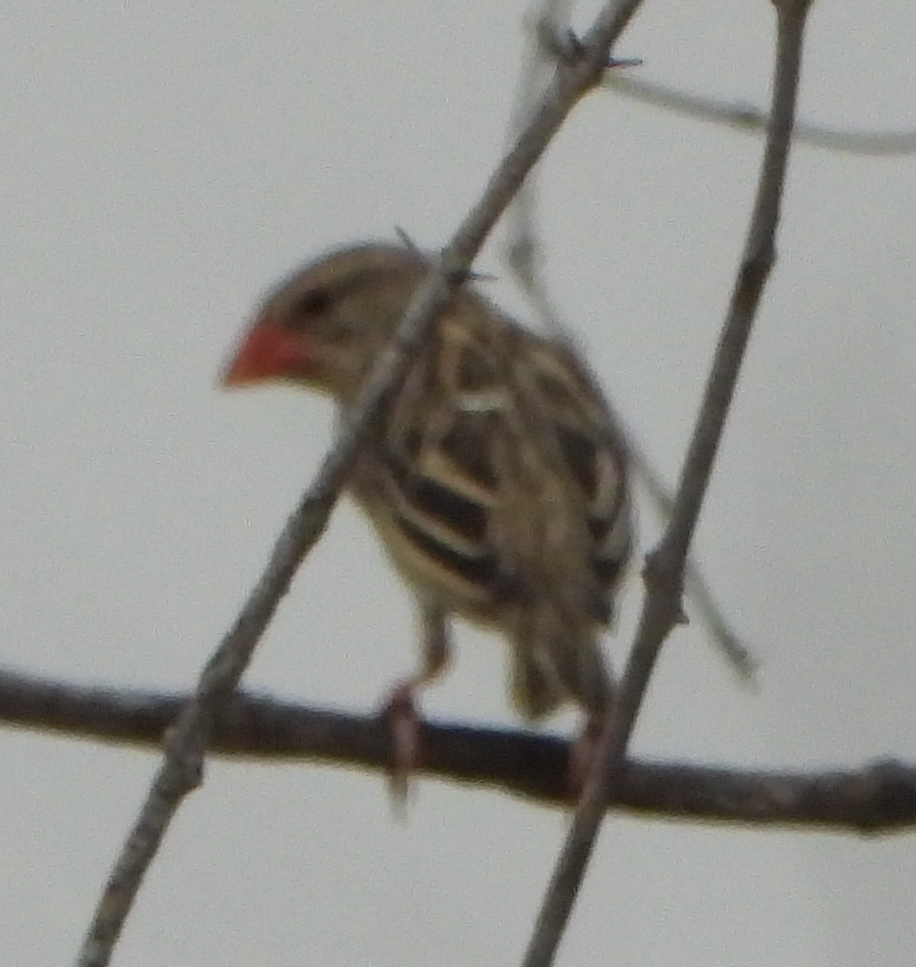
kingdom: Animalia
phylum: Chordata
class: Aves
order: Passeriformes
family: Ploceidae
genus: Quelea
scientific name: Quelea quelea
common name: Red-billed quelea
